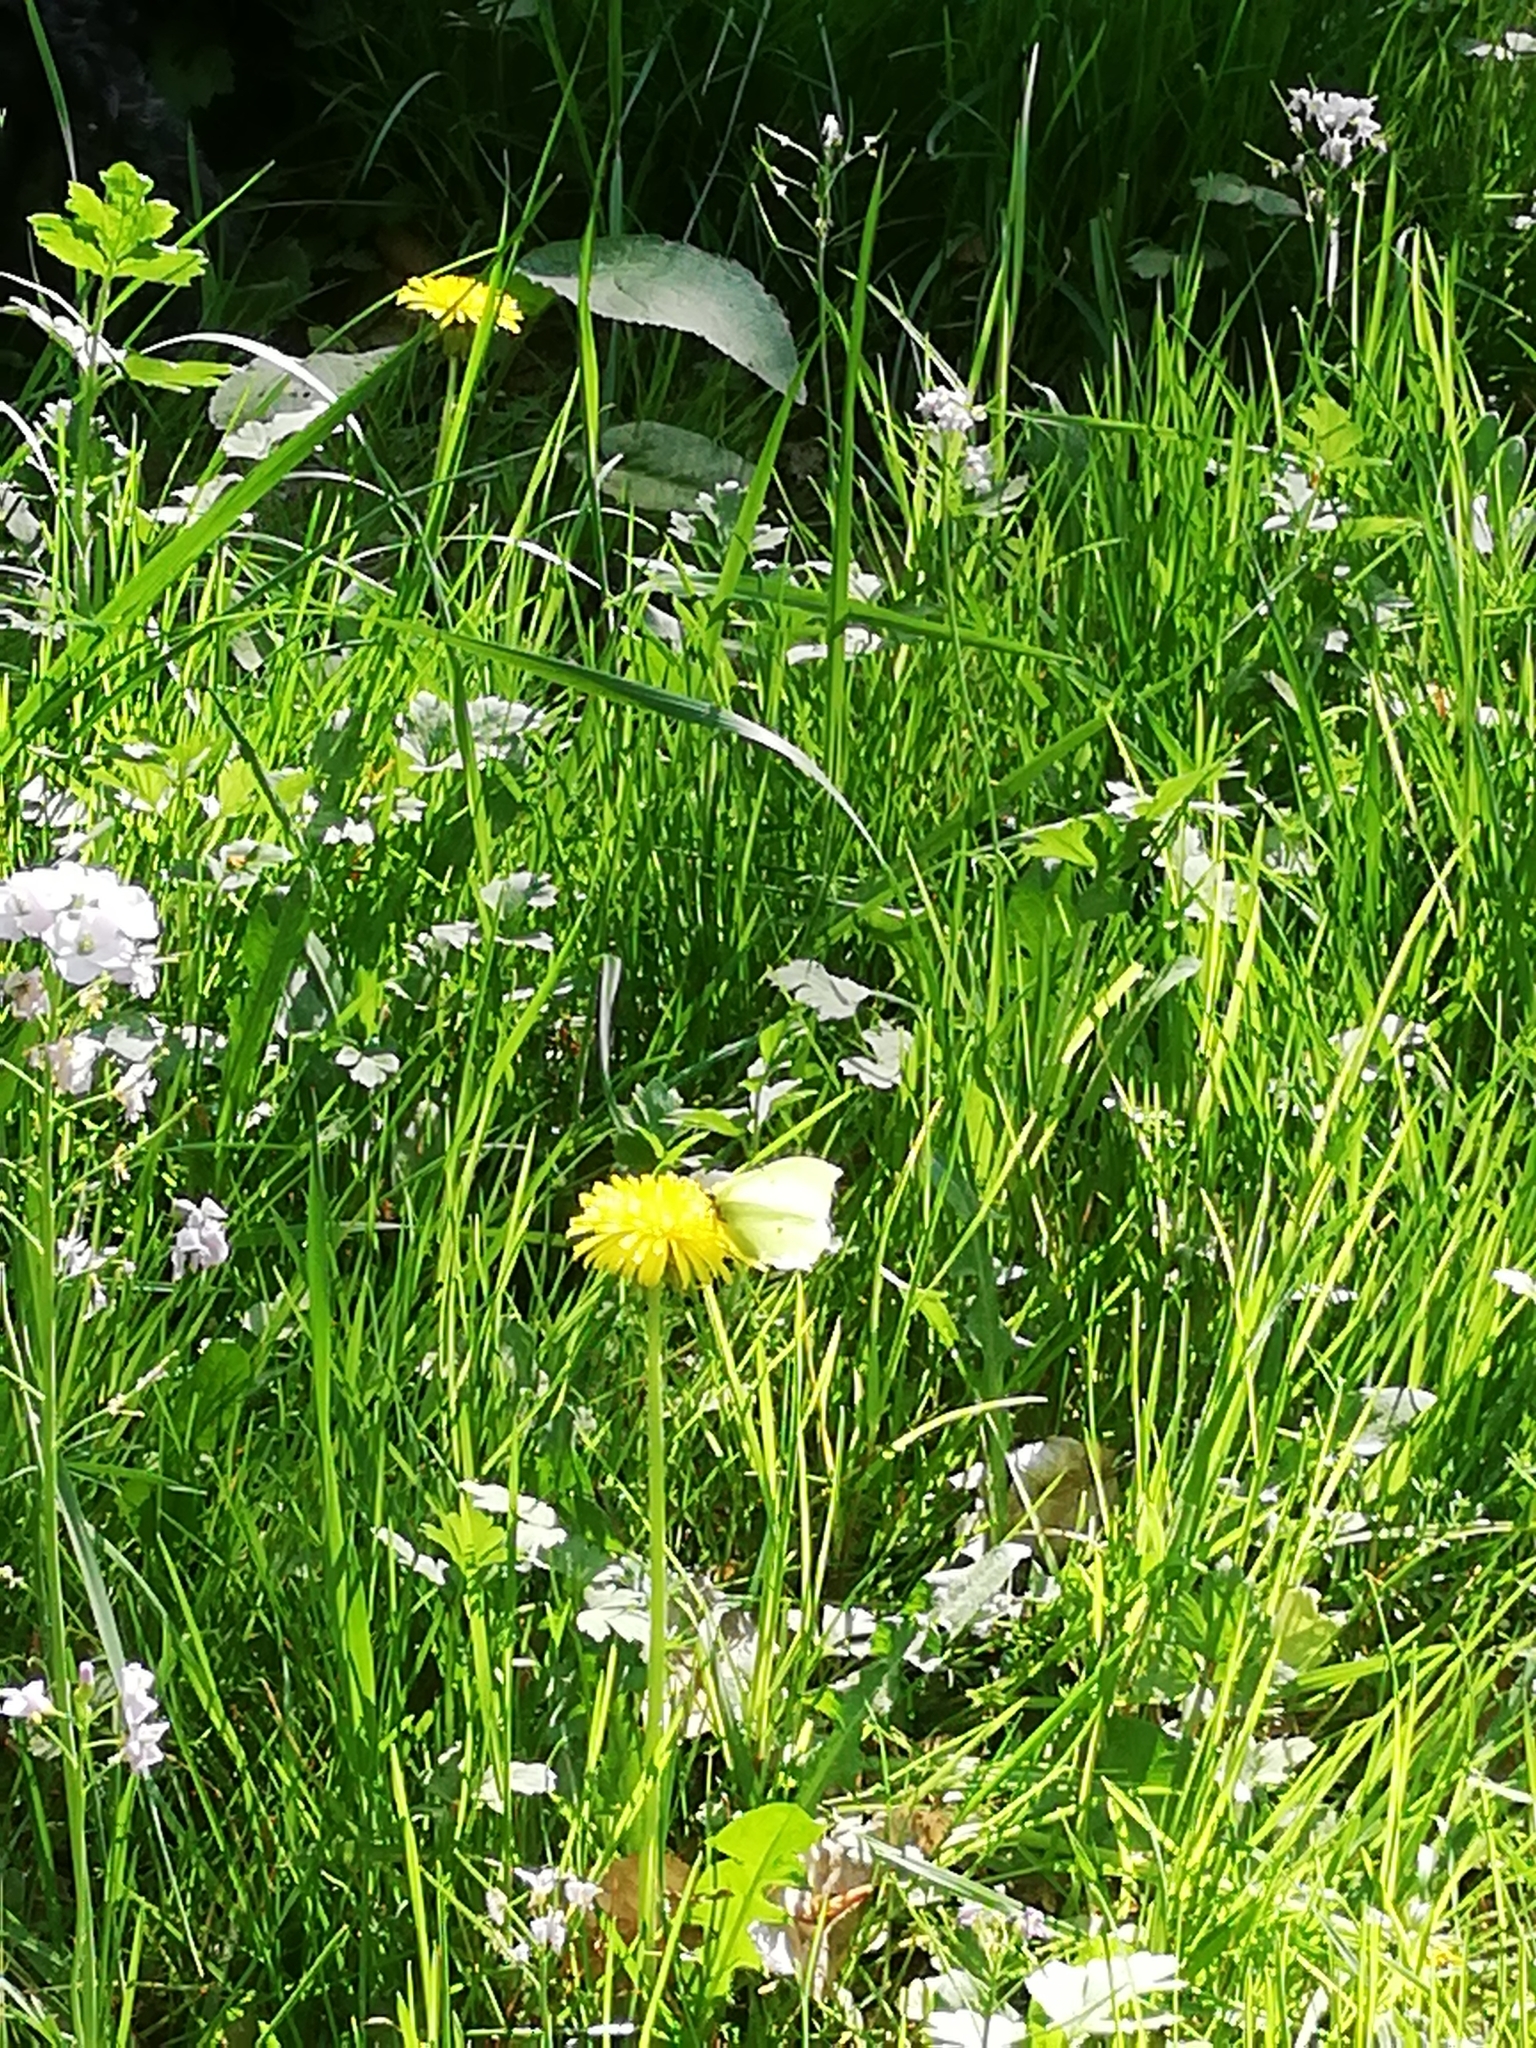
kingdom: Animalia
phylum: Arthropoda
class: Insecta
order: Lepidoptera
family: Pieridae
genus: Gonepteryx
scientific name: Gonepteryx rhamni
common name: Brimstone
